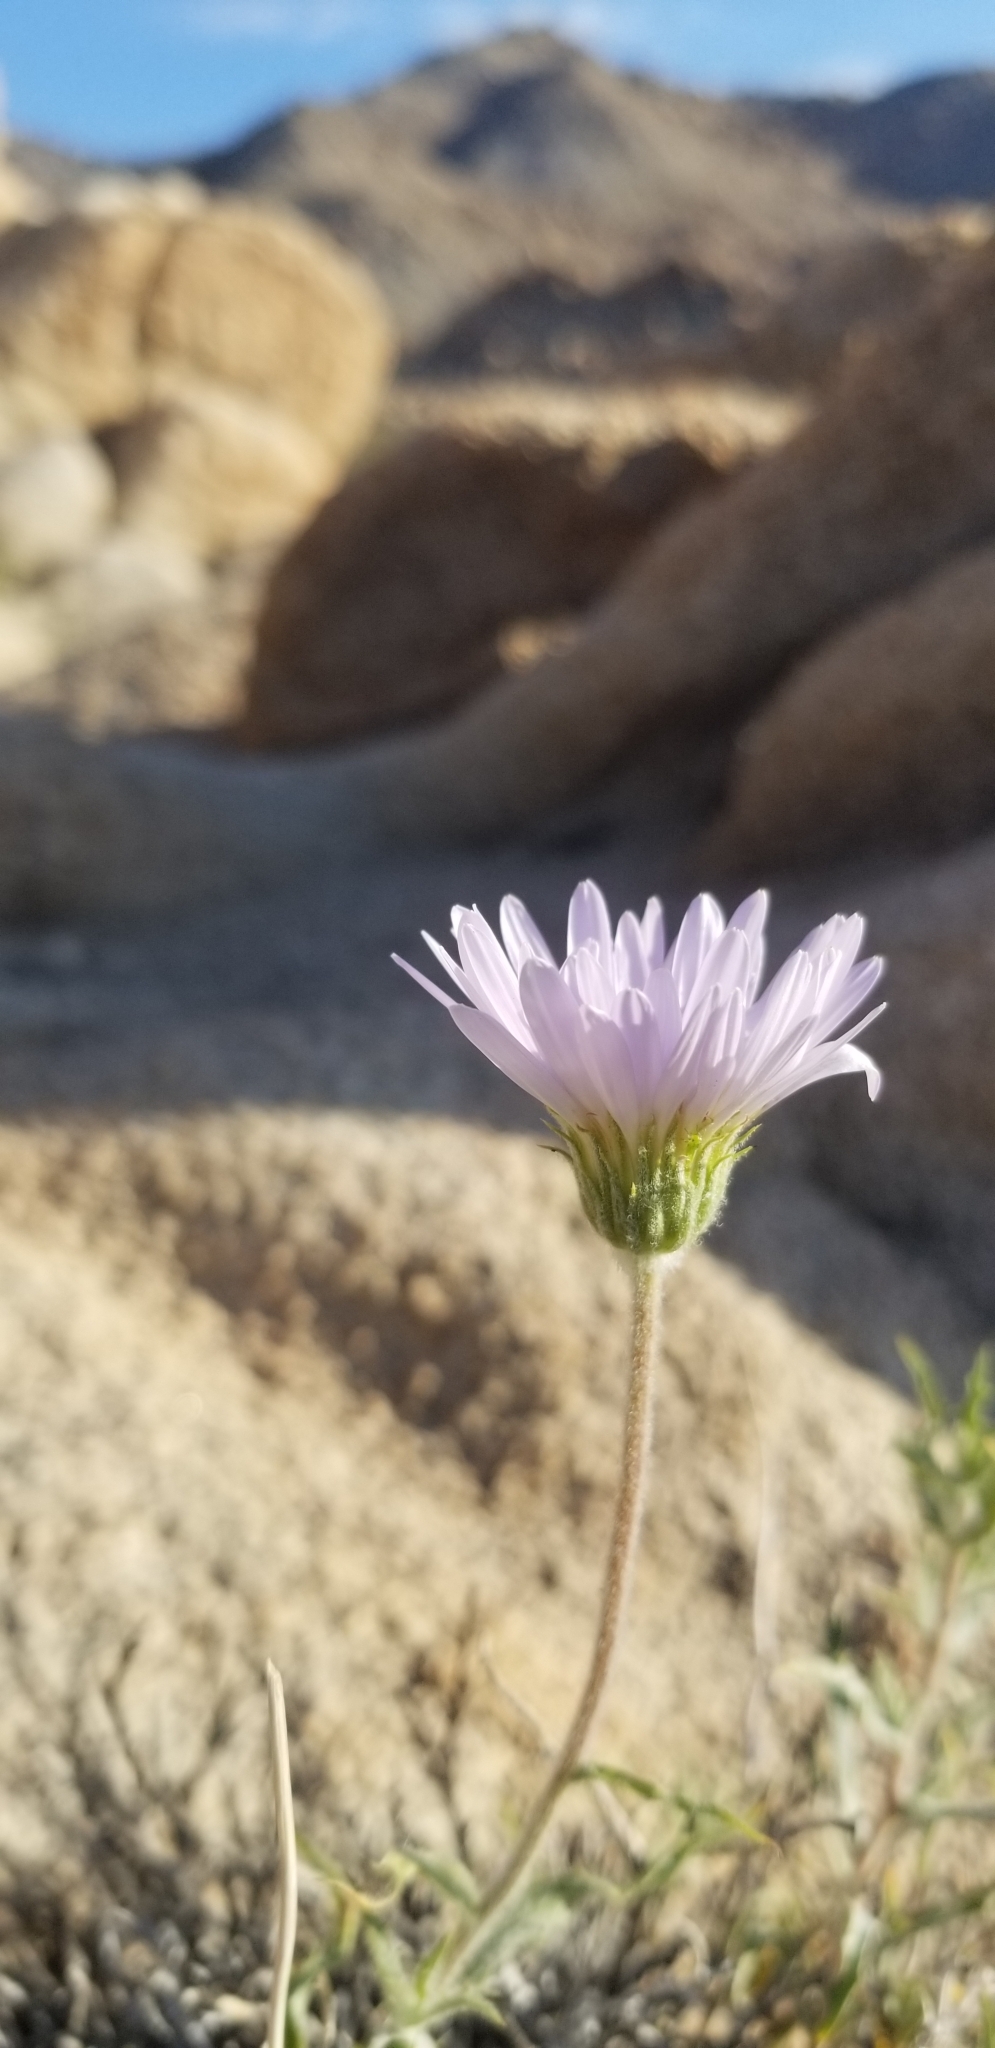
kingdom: Plantae
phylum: Tracheophyta
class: Magnoliopsida
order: Asterales
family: Asteraceae
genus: Xylorhiza
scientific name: Xylorhiza tortifolia
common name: Hurt-leaf woody-aster
